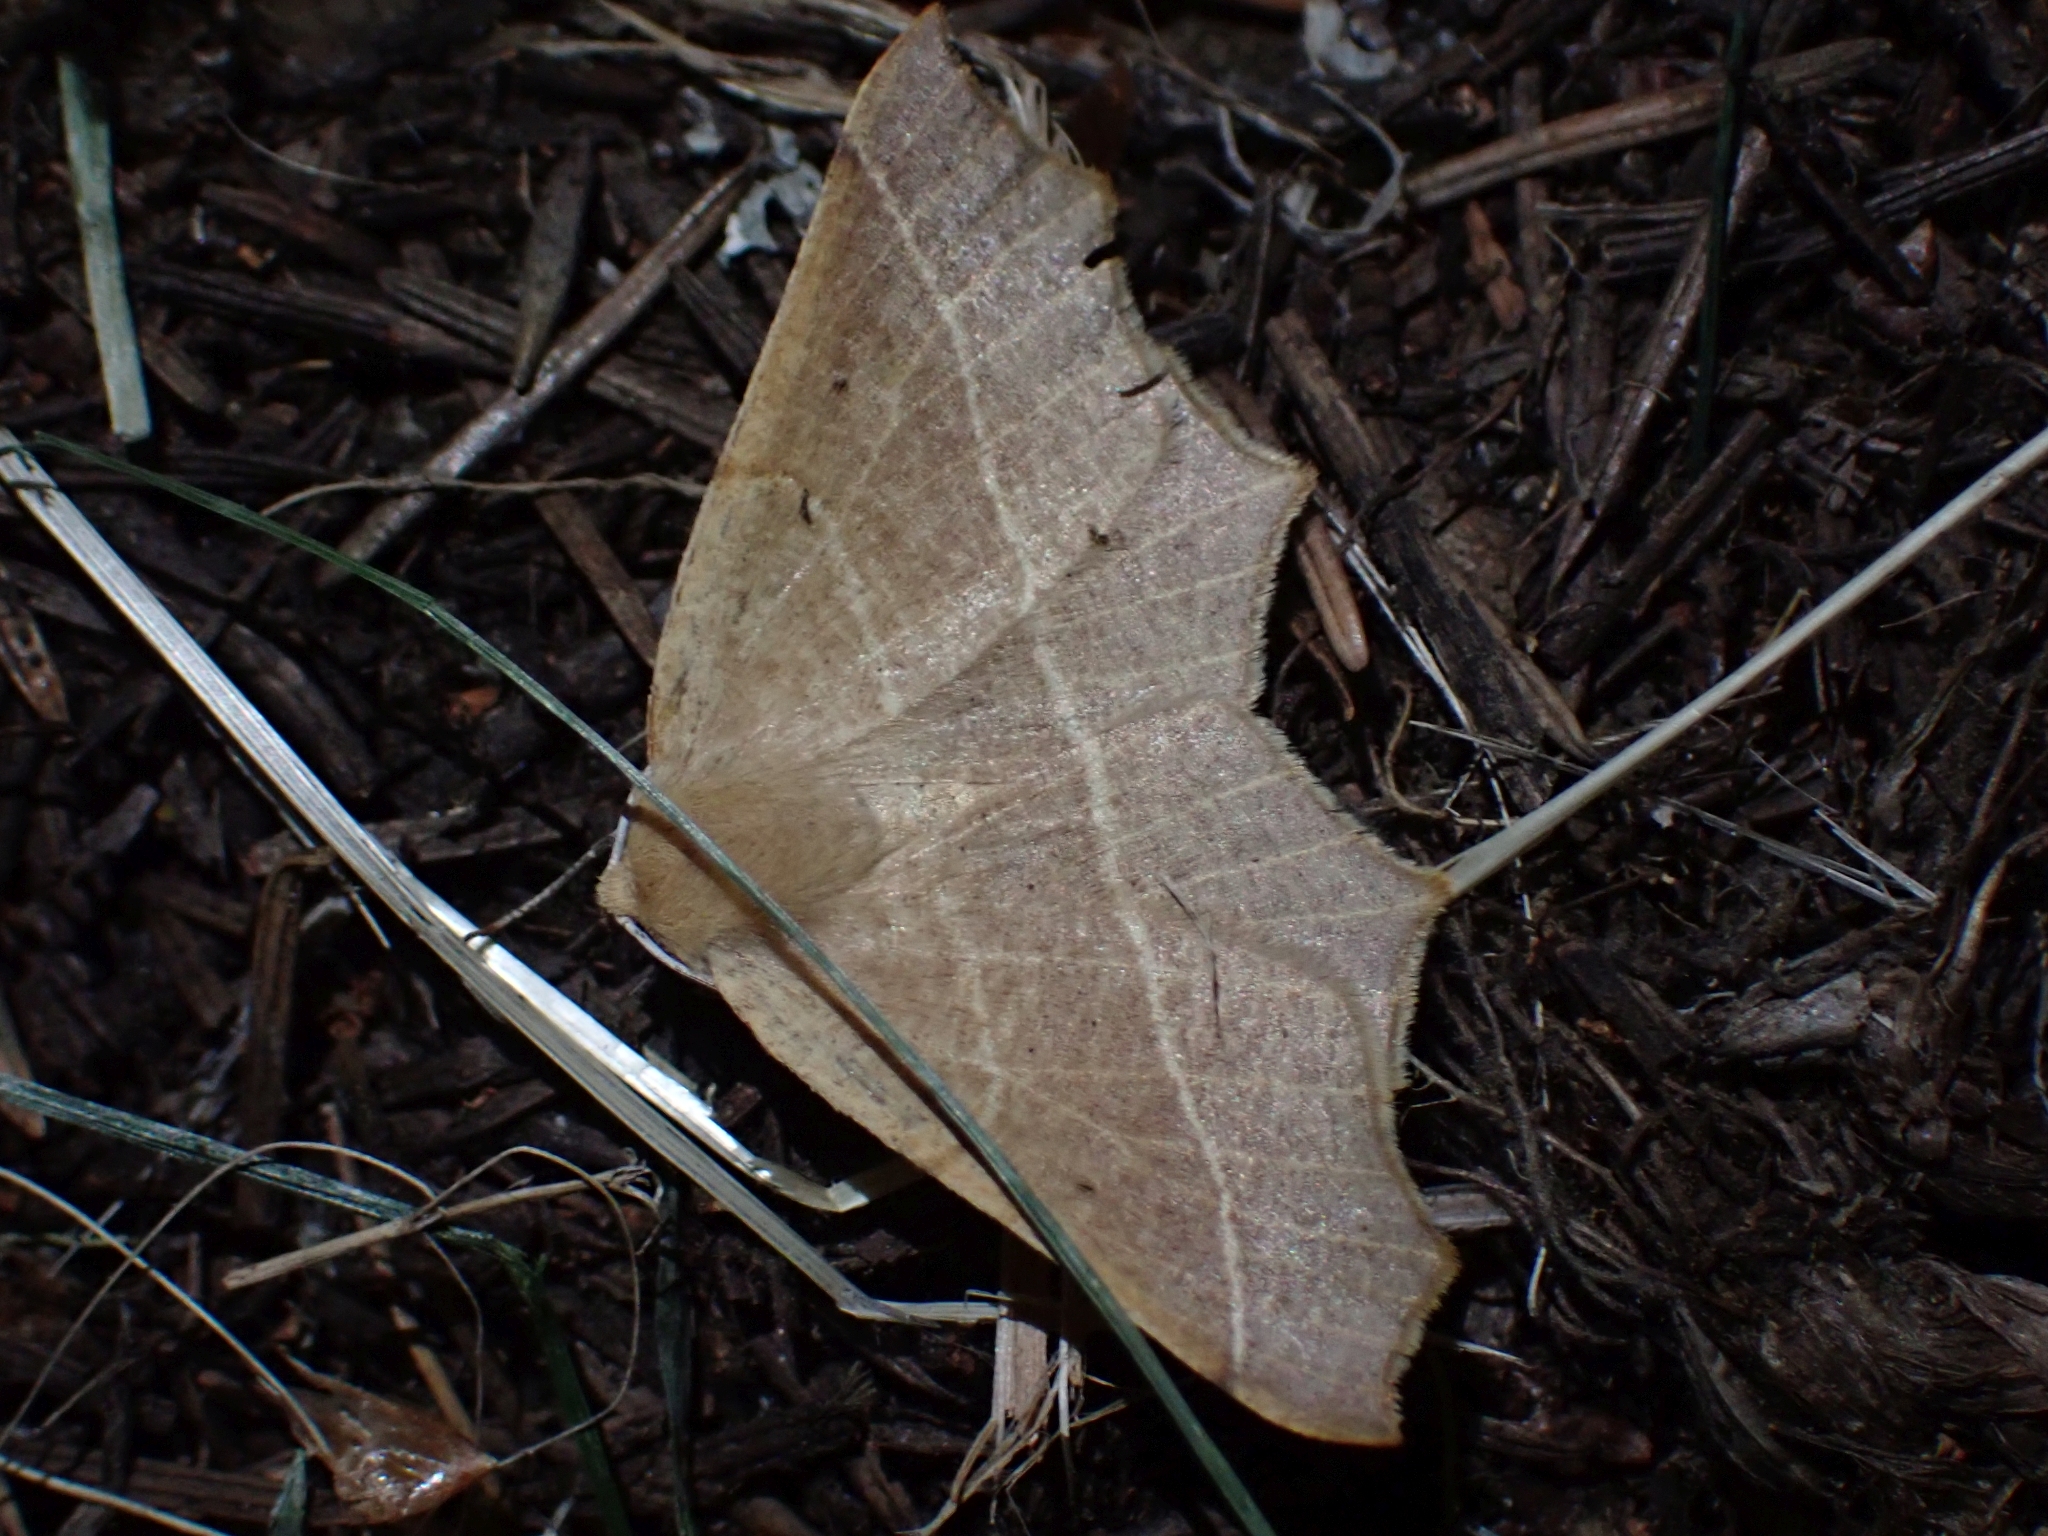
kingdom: Animalia
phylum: Arthropoda
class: Insecta
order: Lepidoptera
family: Geometridae
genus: Tetracis
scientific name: Tetracis cervinaria
